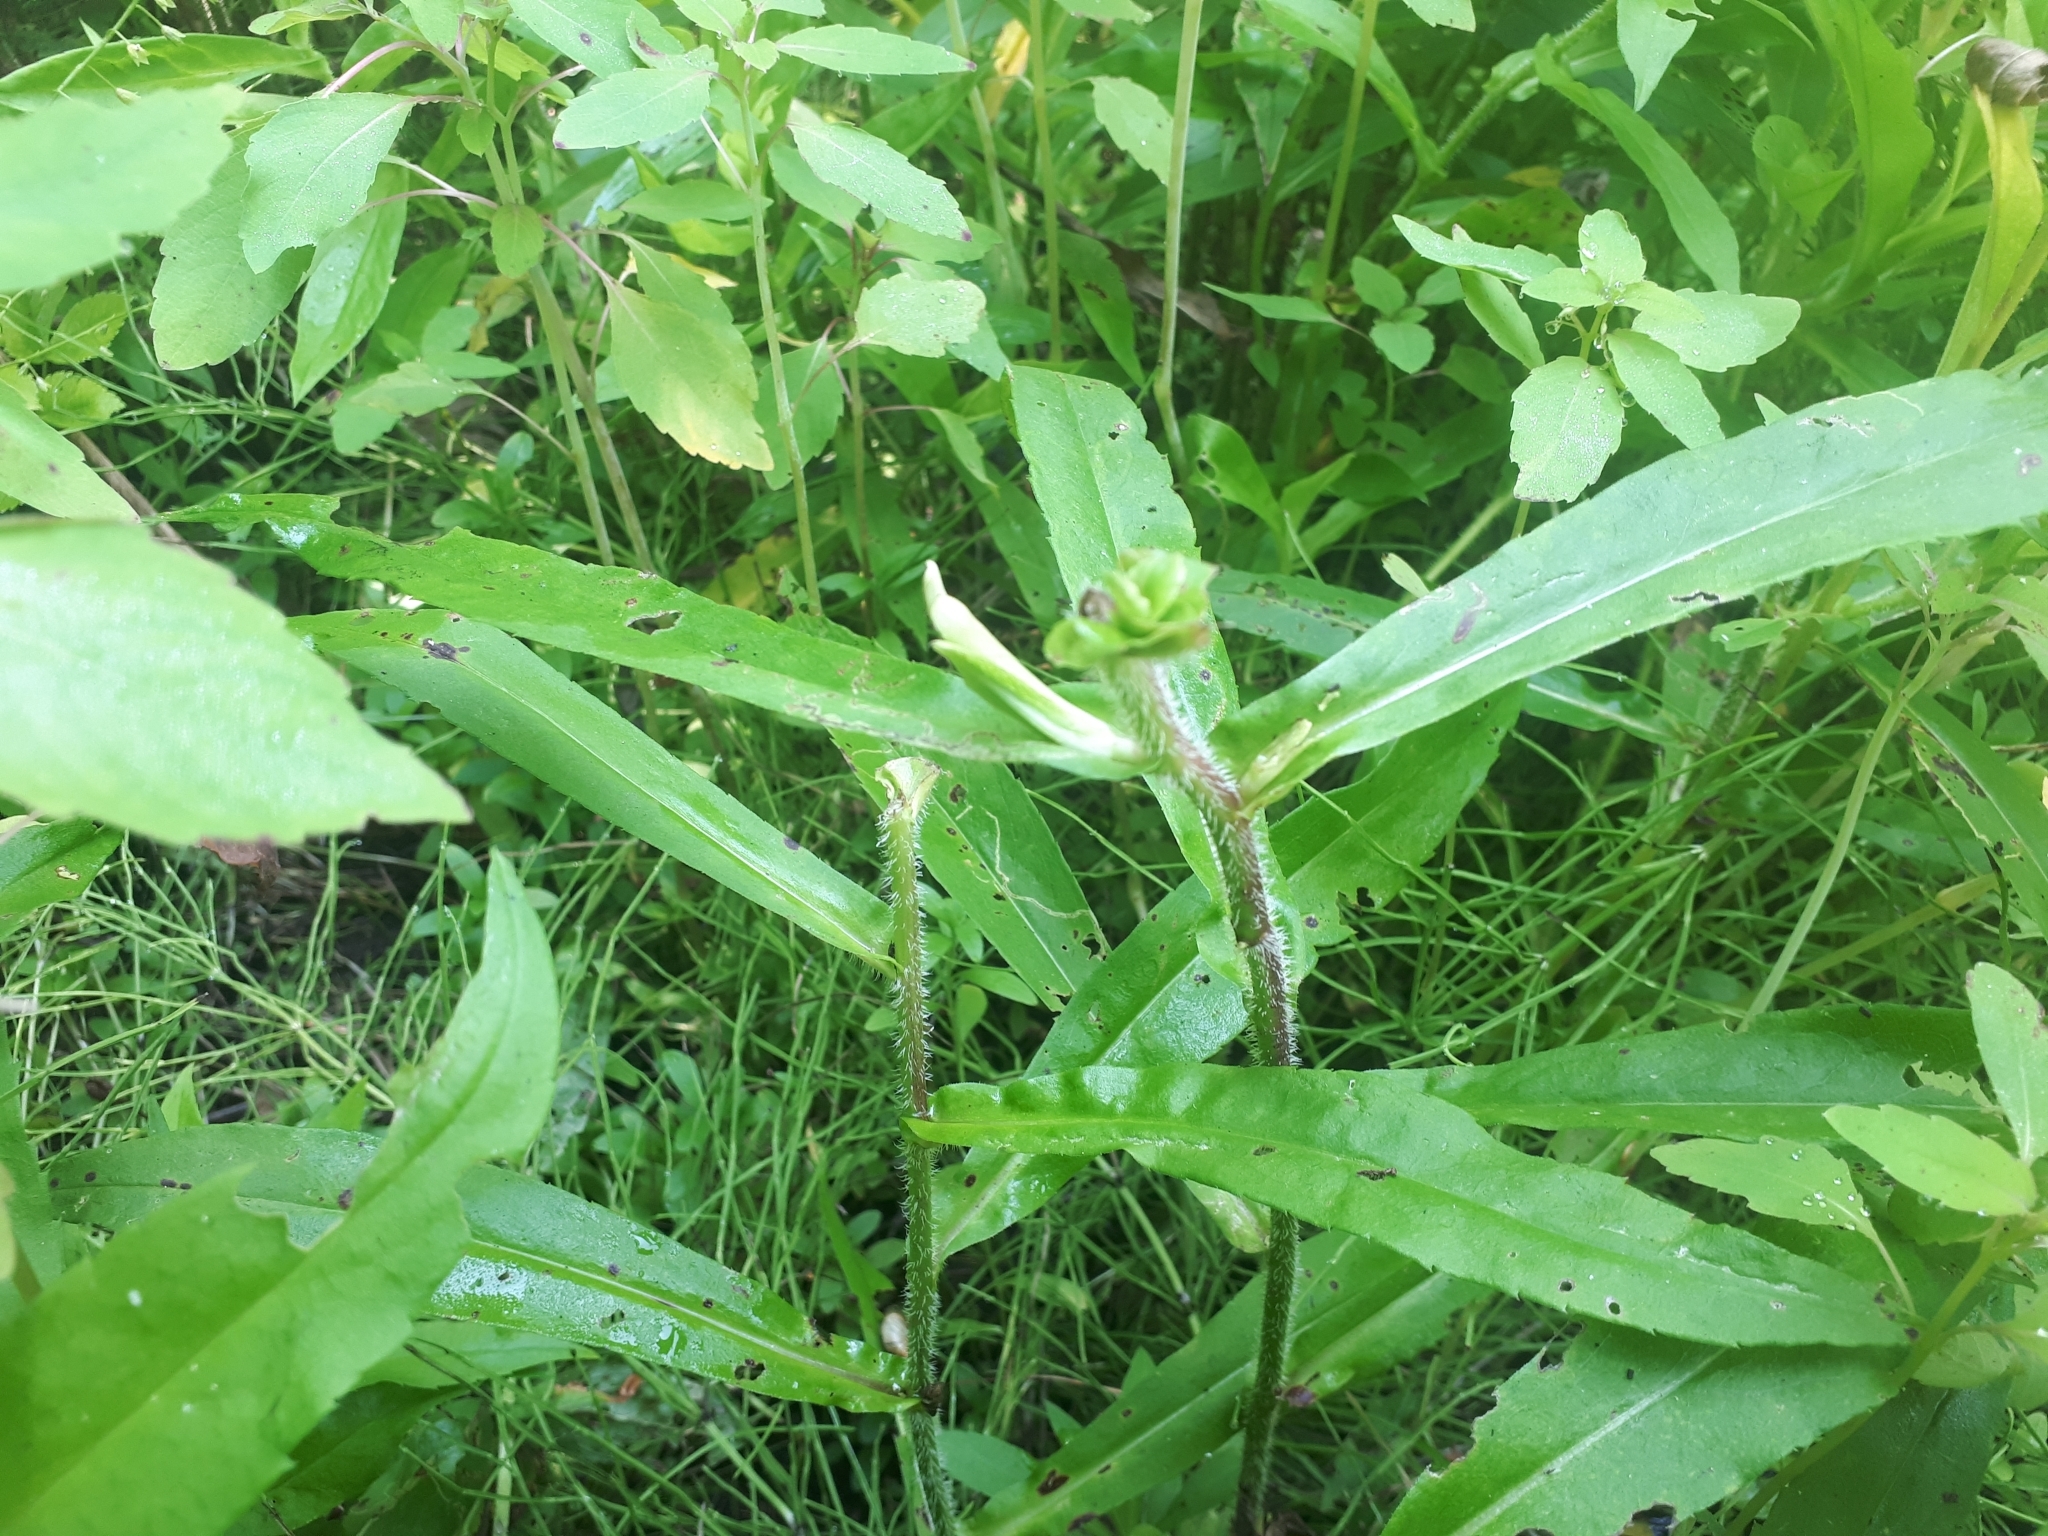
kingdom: Plantae
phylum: Tracheophyta
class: Magnoliopsida
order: Asterales
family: Asteraceae
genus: Symphyotrichum
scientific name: Symphyotrichum puniceum
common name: Bog aster
